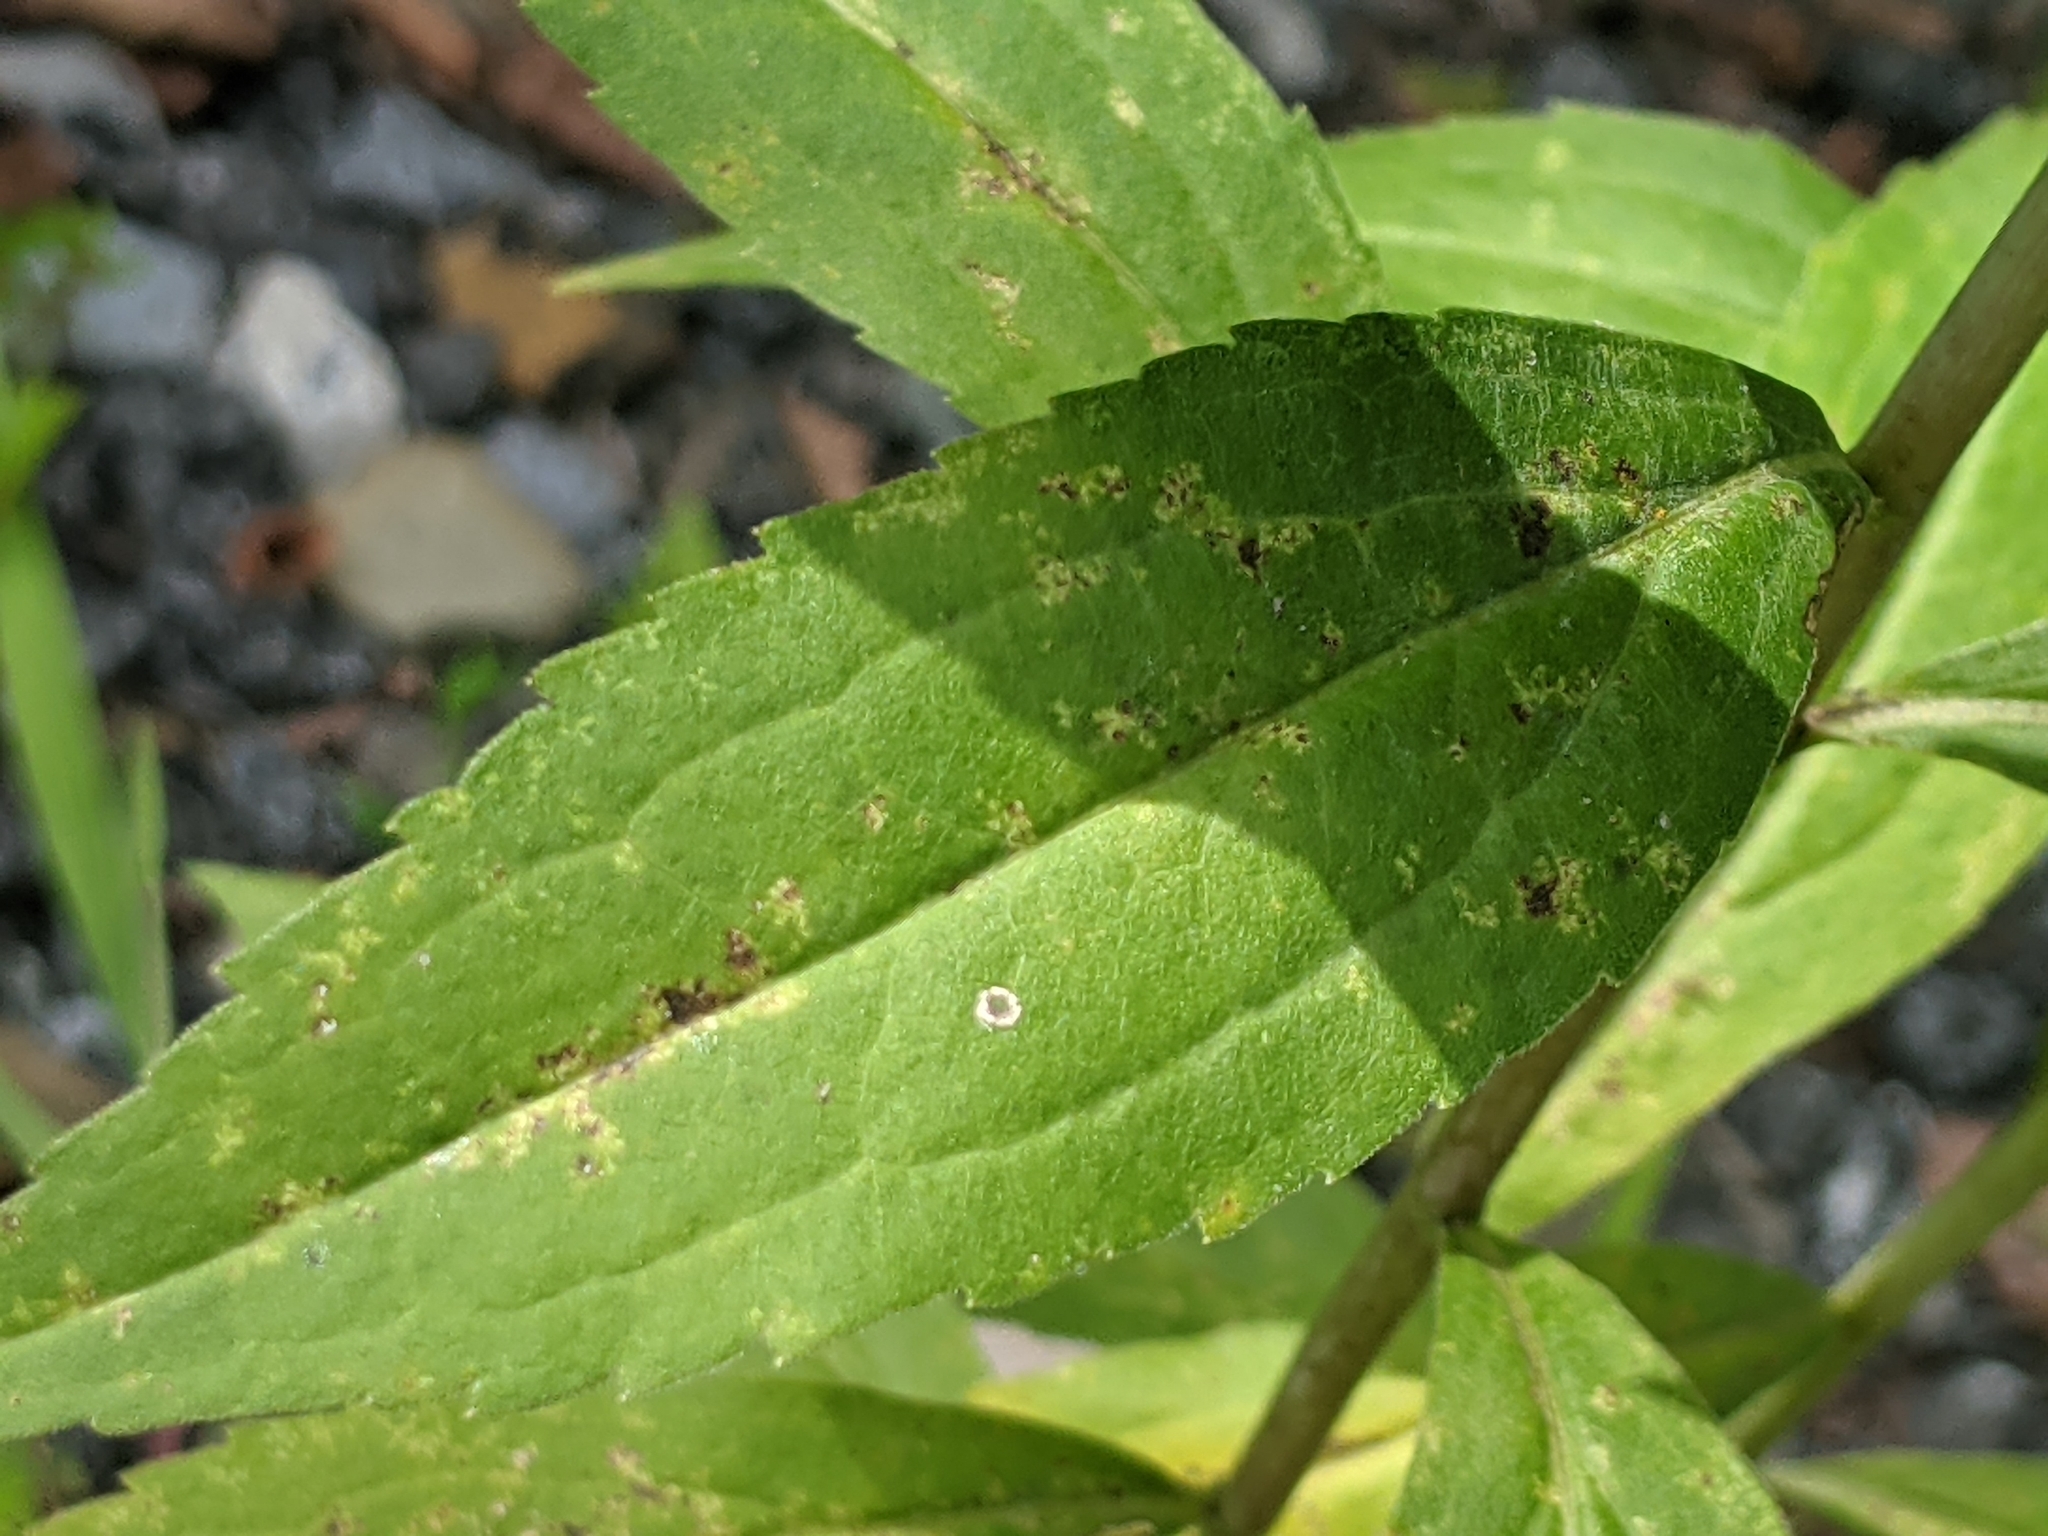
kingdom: Animalia
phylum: Arthropoda
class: Insecta
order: Diptera
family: Cecidomyiidae
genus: Rhopalomyia
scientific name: Rhopalomyia capitata
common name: Giant goldenrod bunch gall midge
